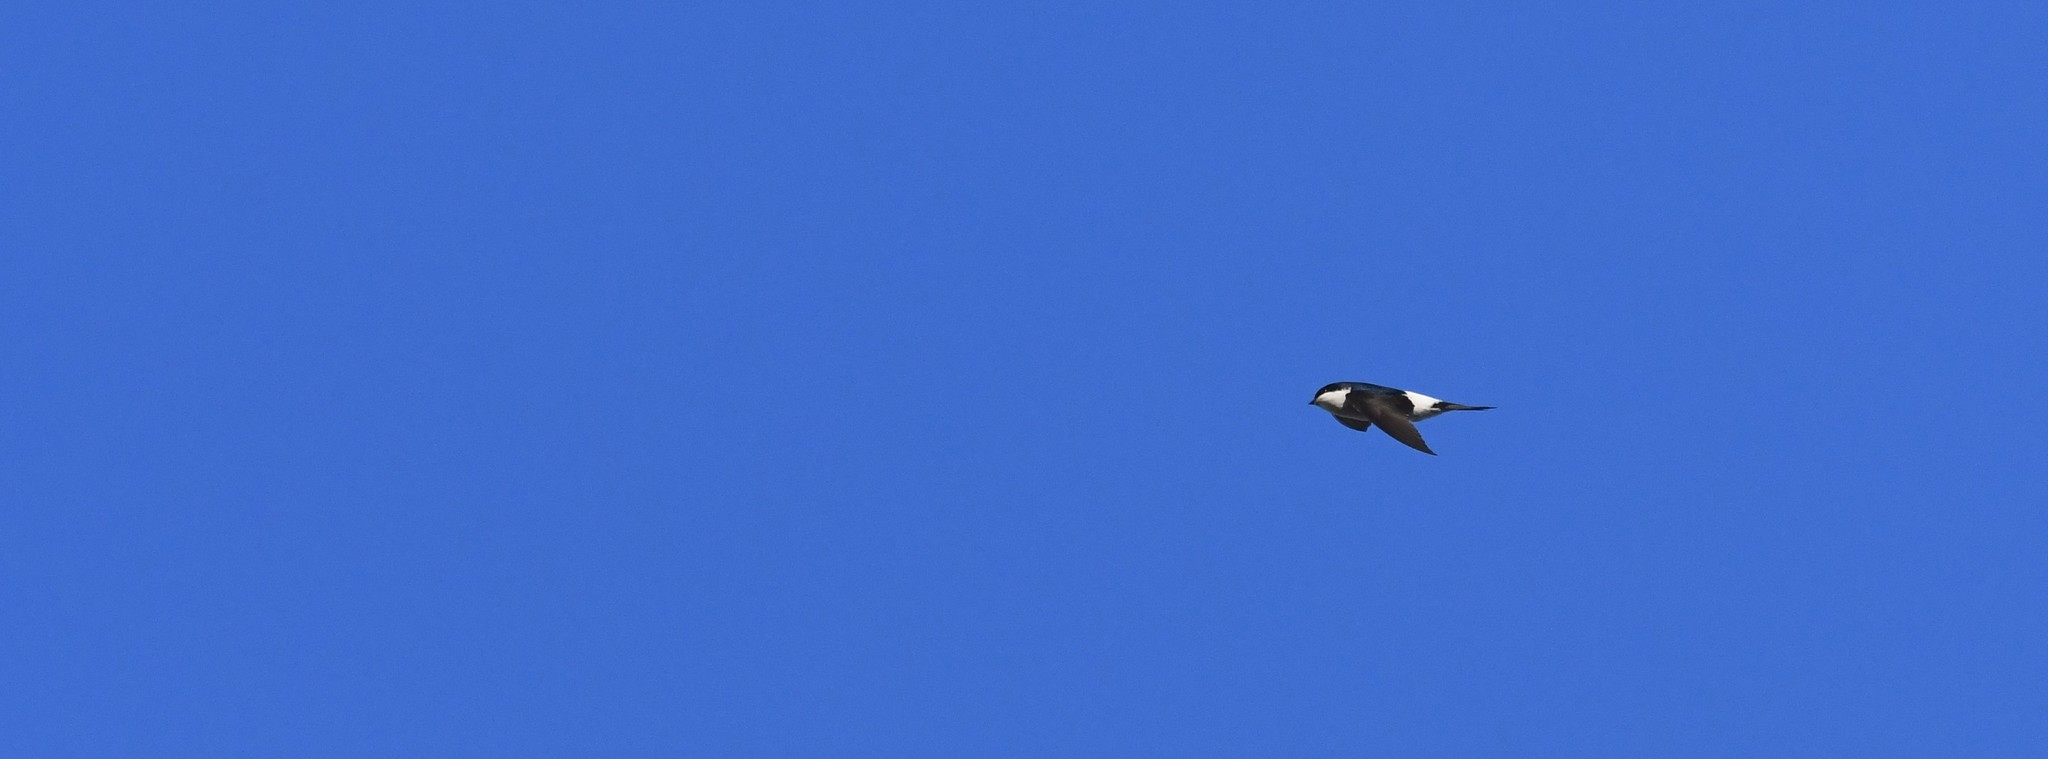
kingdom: Animalia
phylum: Chordata
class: Aves
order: Passeriformes
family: Hirundinidae
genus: Delichon
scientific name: Delichon urbicum
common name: Common house martin
